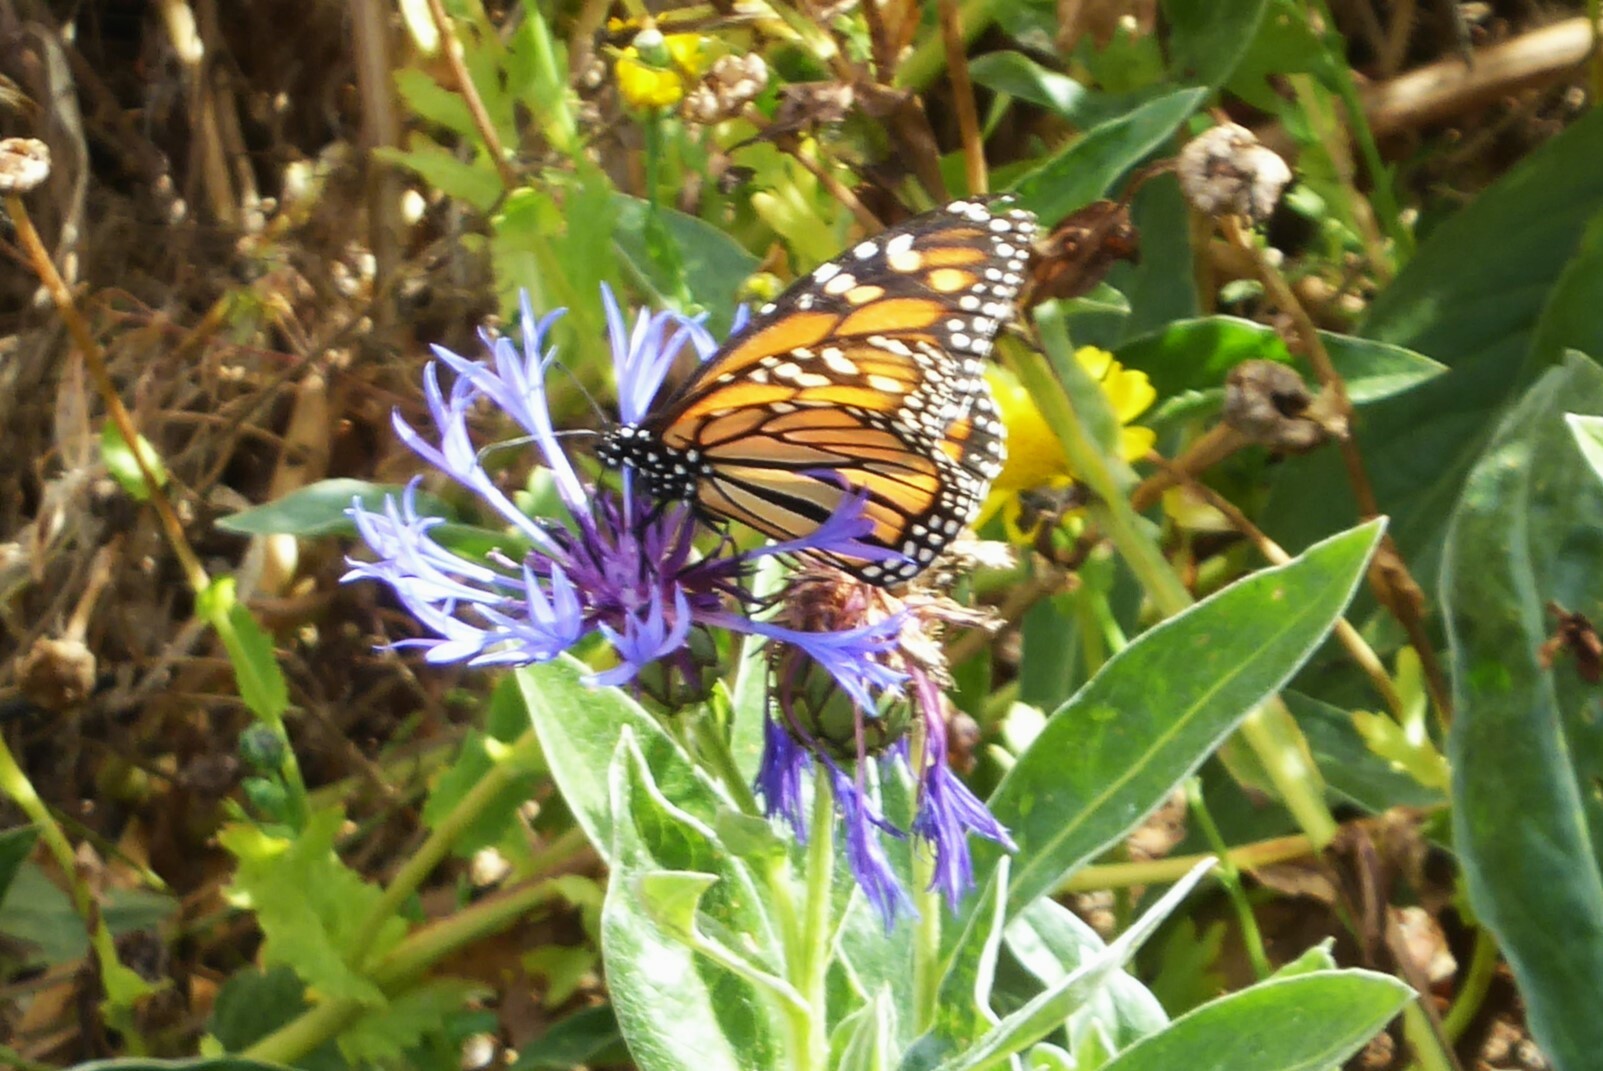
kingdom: Animalia
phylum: Arthropoda
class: Insecta
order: Lepidoptera
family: Nymphalidae
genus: Danaus
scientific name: Danaus plexippus
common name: Monarch
